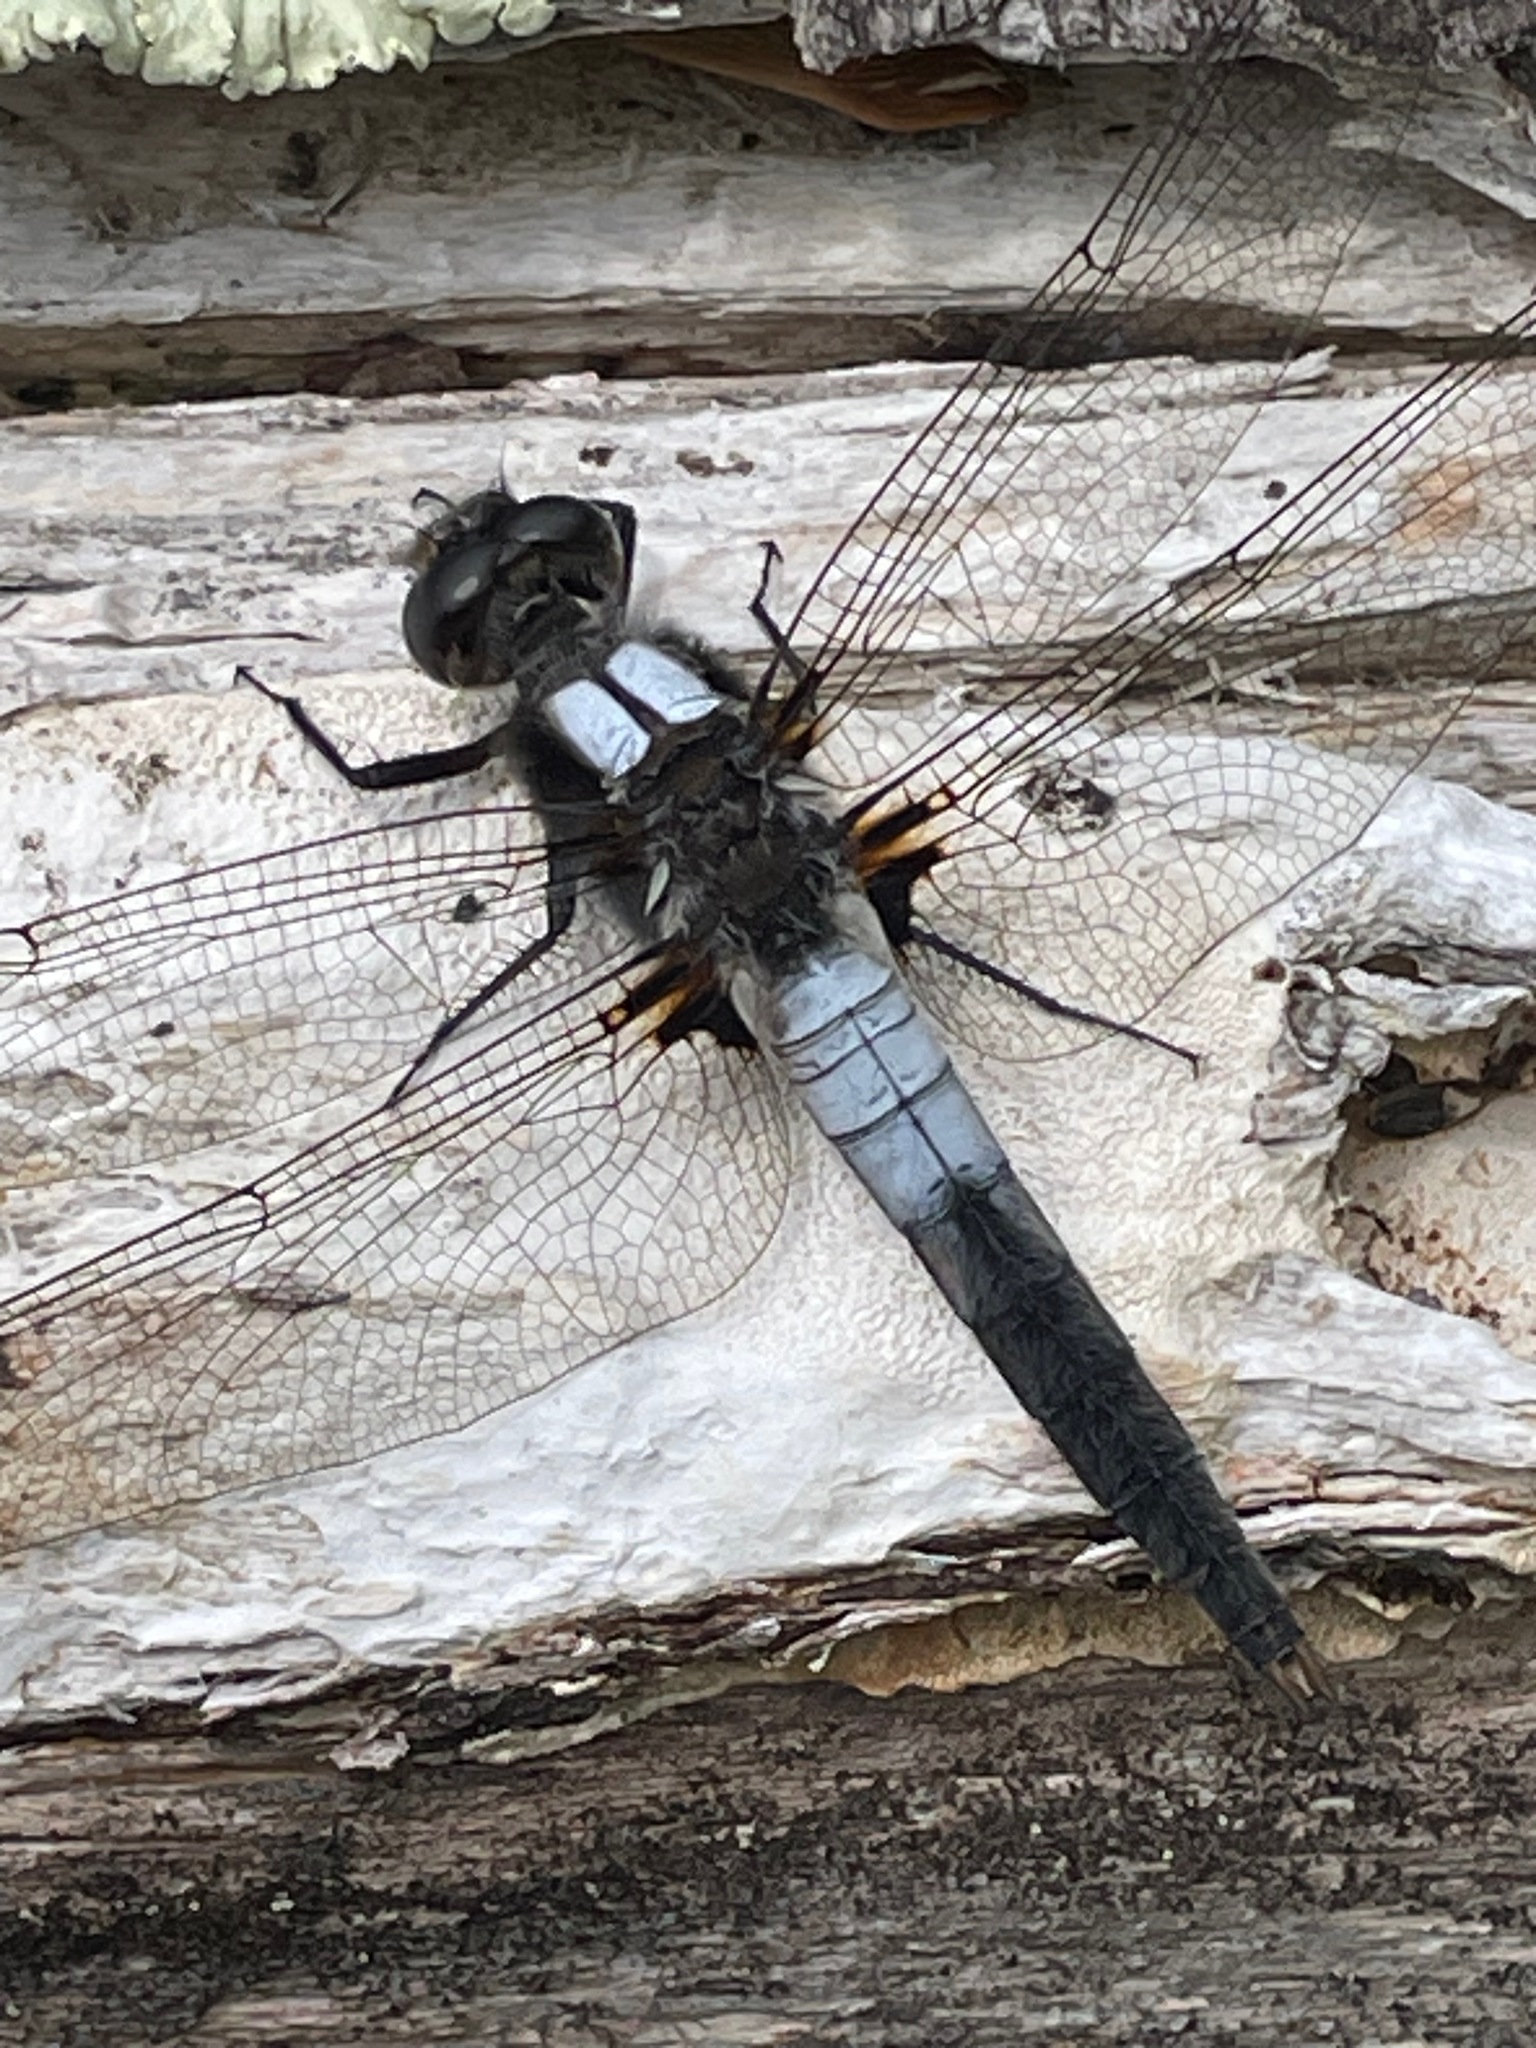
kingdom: Animalia
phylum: Arthropoda
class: Insecta
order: Odonata
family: Libellulidae
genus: Ladona
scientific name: Ladona julia
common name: Chalk-fronted corporal
